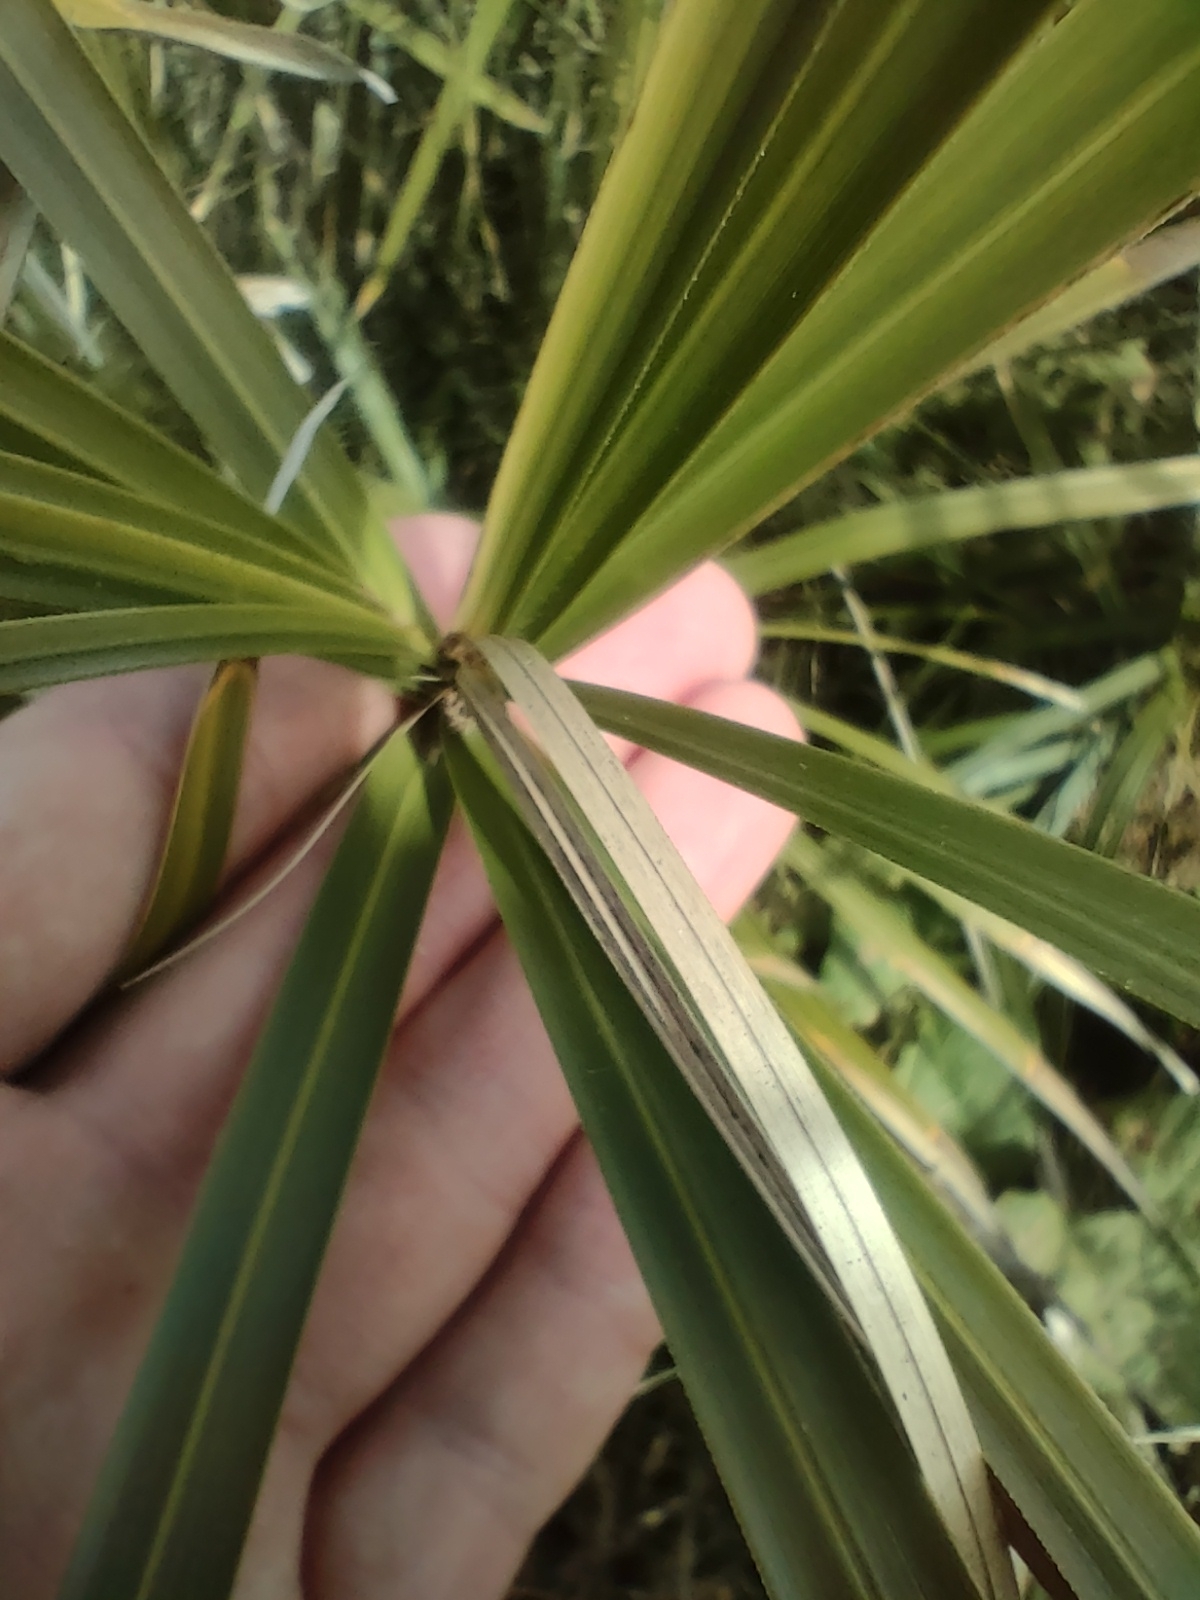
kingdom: Plantae
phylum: Tracheophyta
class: Liliopsida
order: Poales
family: Cyperaceae
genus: Cyperus
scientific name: Cyperus alternifolius
